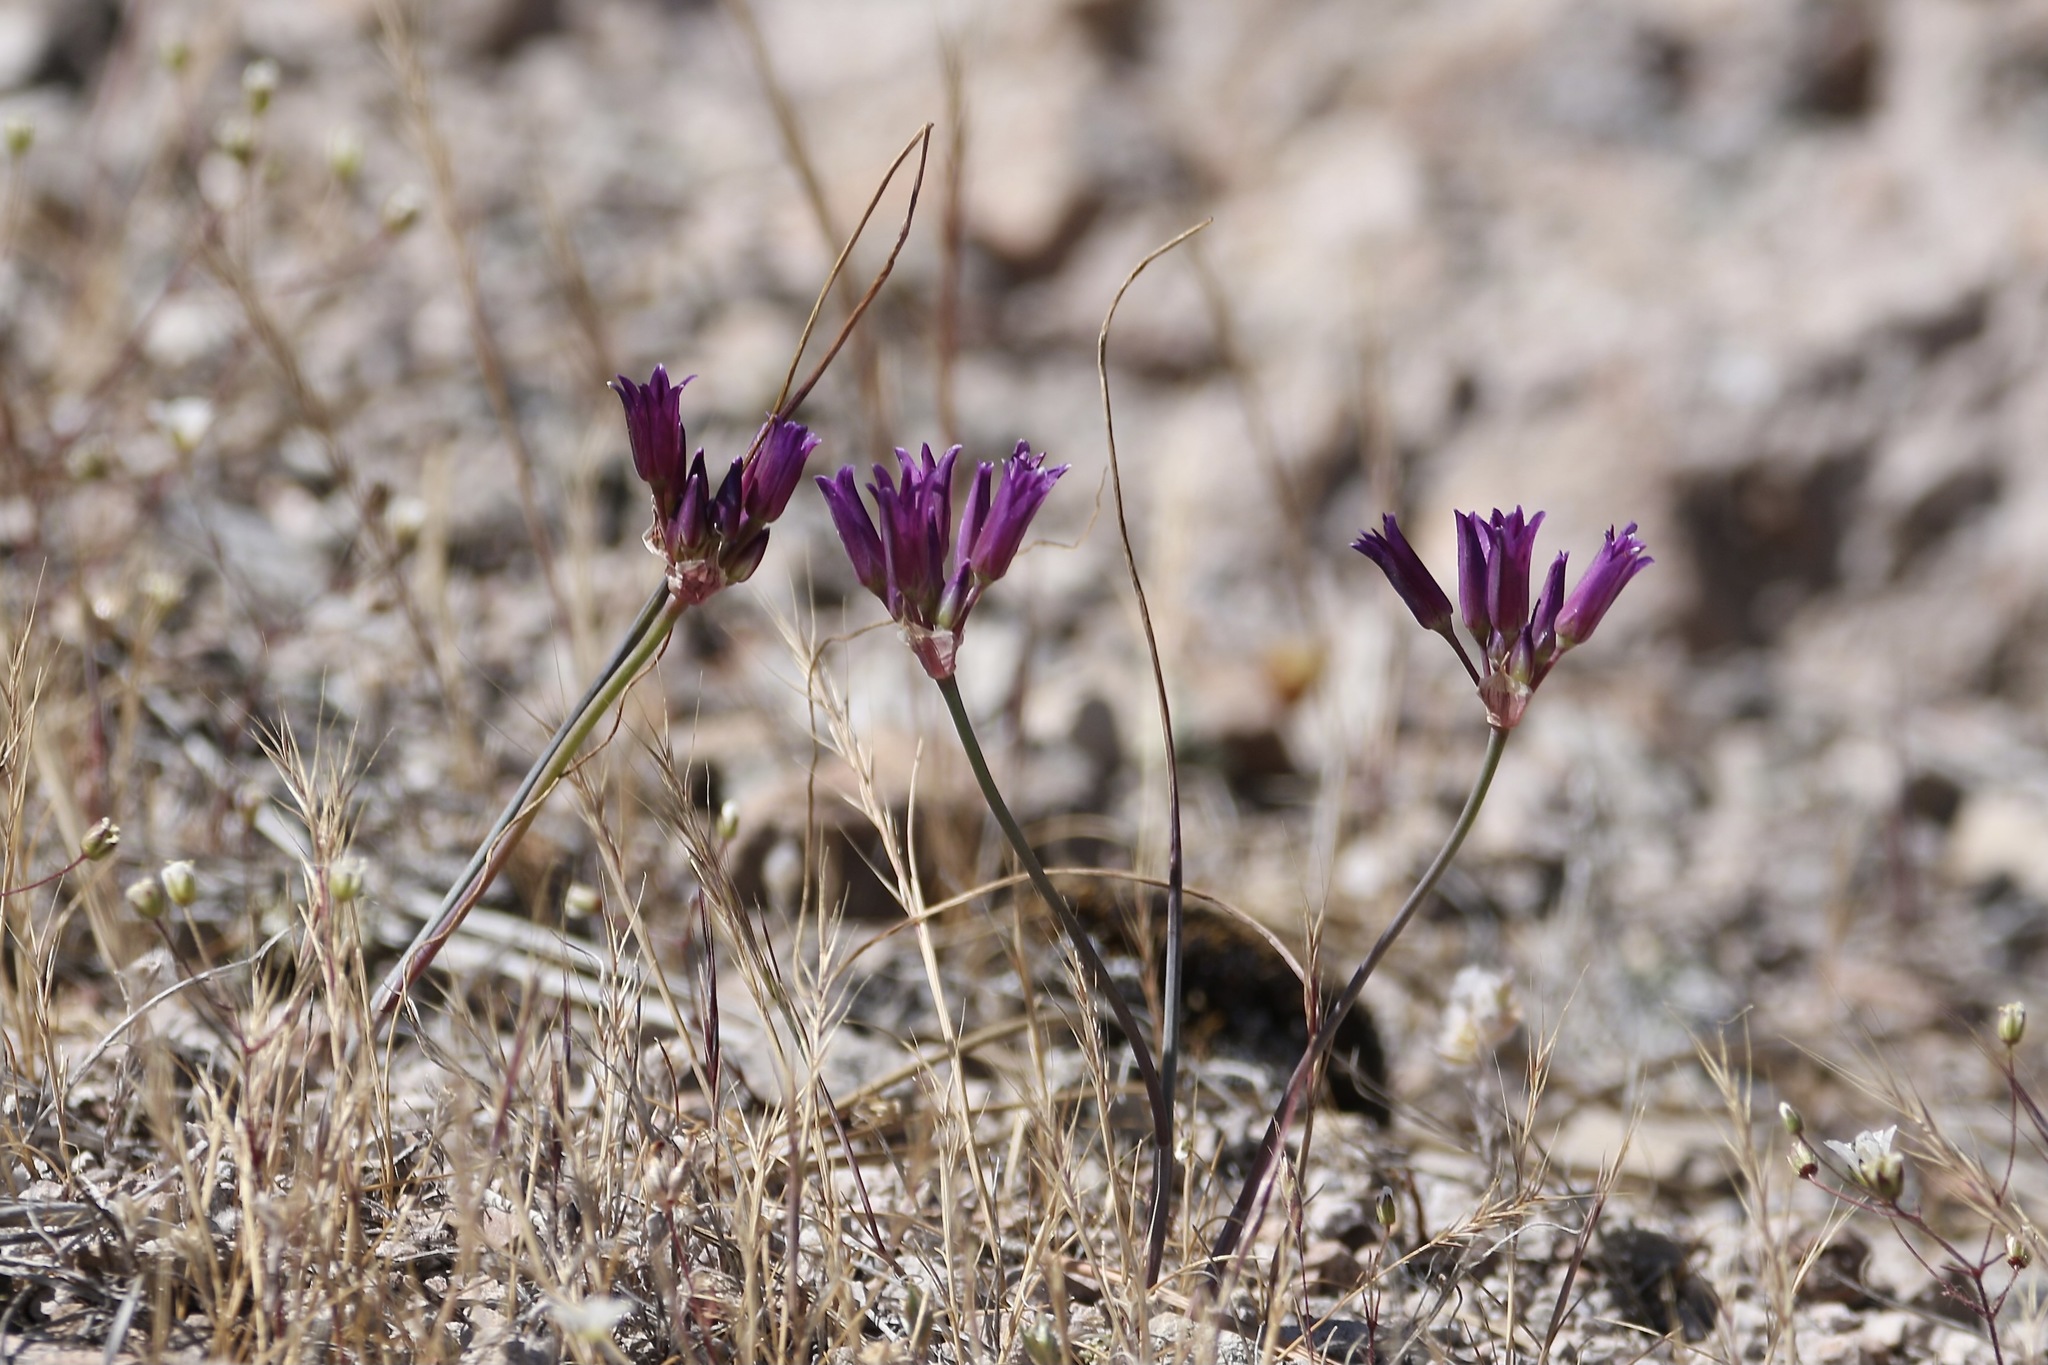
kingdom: Plantae
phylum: Tracheophyta
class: Liliopsida
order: Asparagales
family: Amaryllidaceae
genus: Allium
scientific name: Allium fimbriatum
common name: Fringed onion
